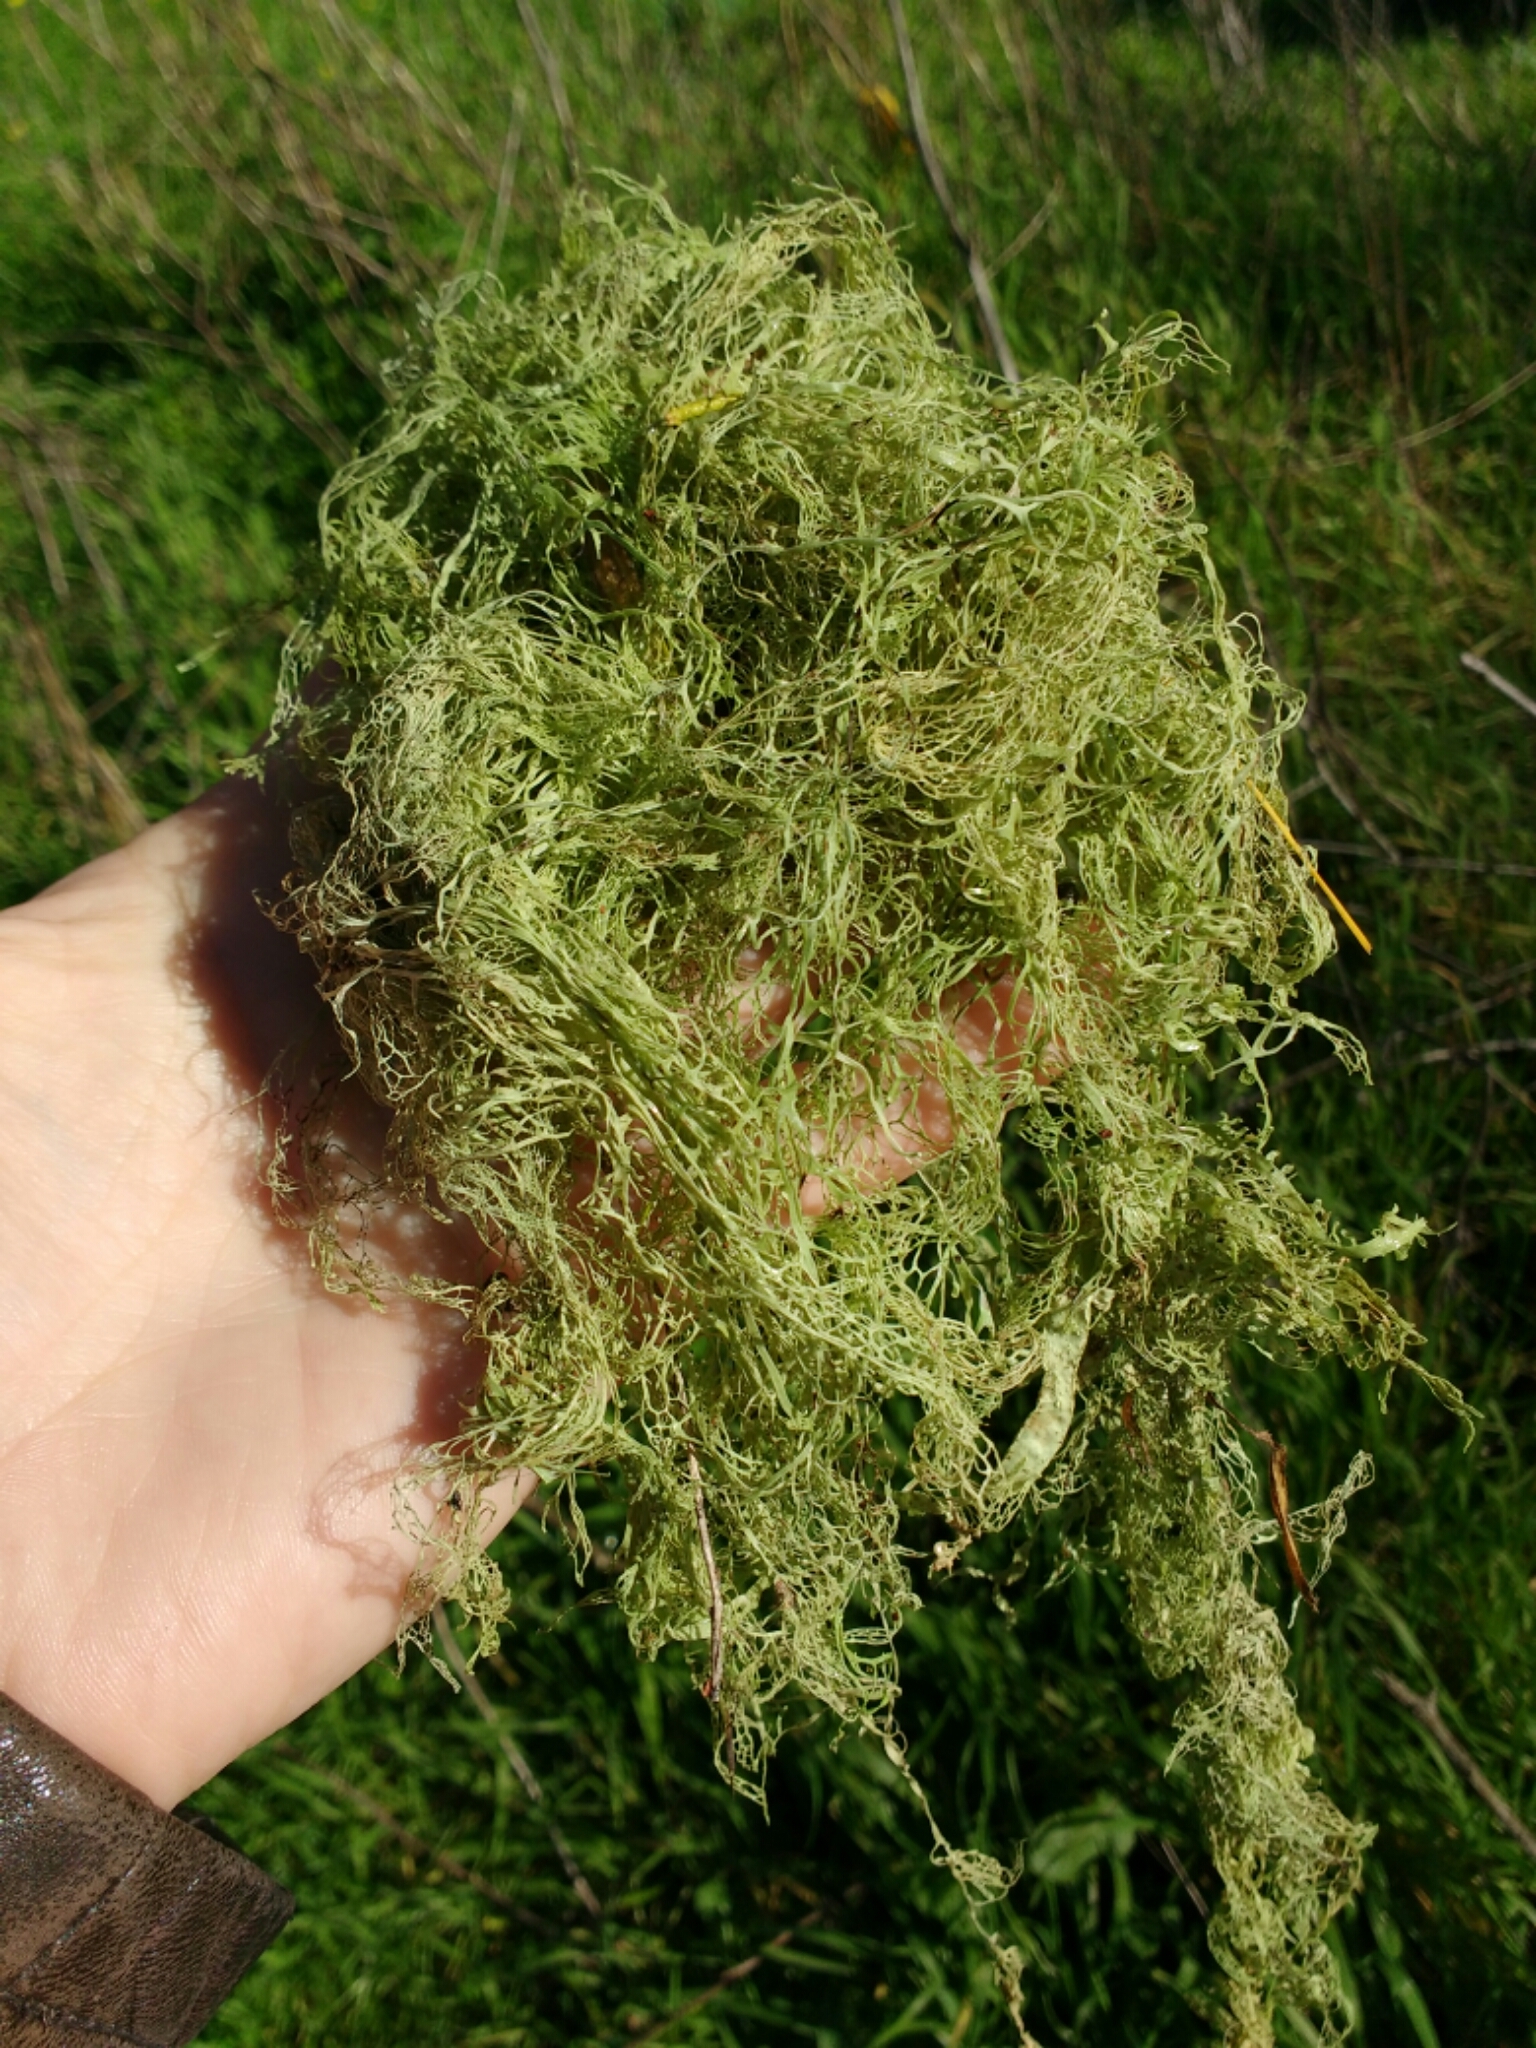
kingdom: Fungi
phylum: Ascomycota
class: Lecanoromycetes
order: Lecanorales
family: Ramalinaceae
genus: Ramalina
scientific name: Ramalina menziesii
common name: Lace lichen
